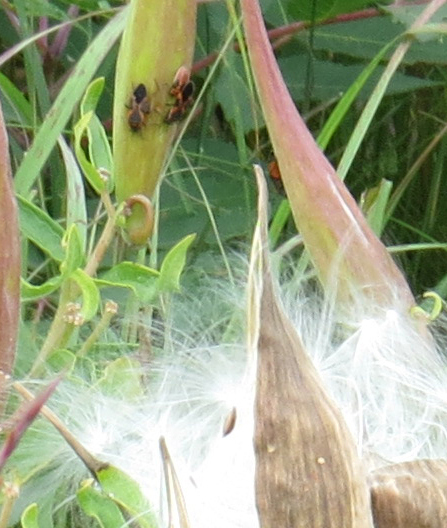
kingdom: Animalia
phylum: Arthropoda
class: Insecta
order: Hemiptera
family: Lygaeidae
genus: Lygaeus
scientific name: Lygaeus kalmii
